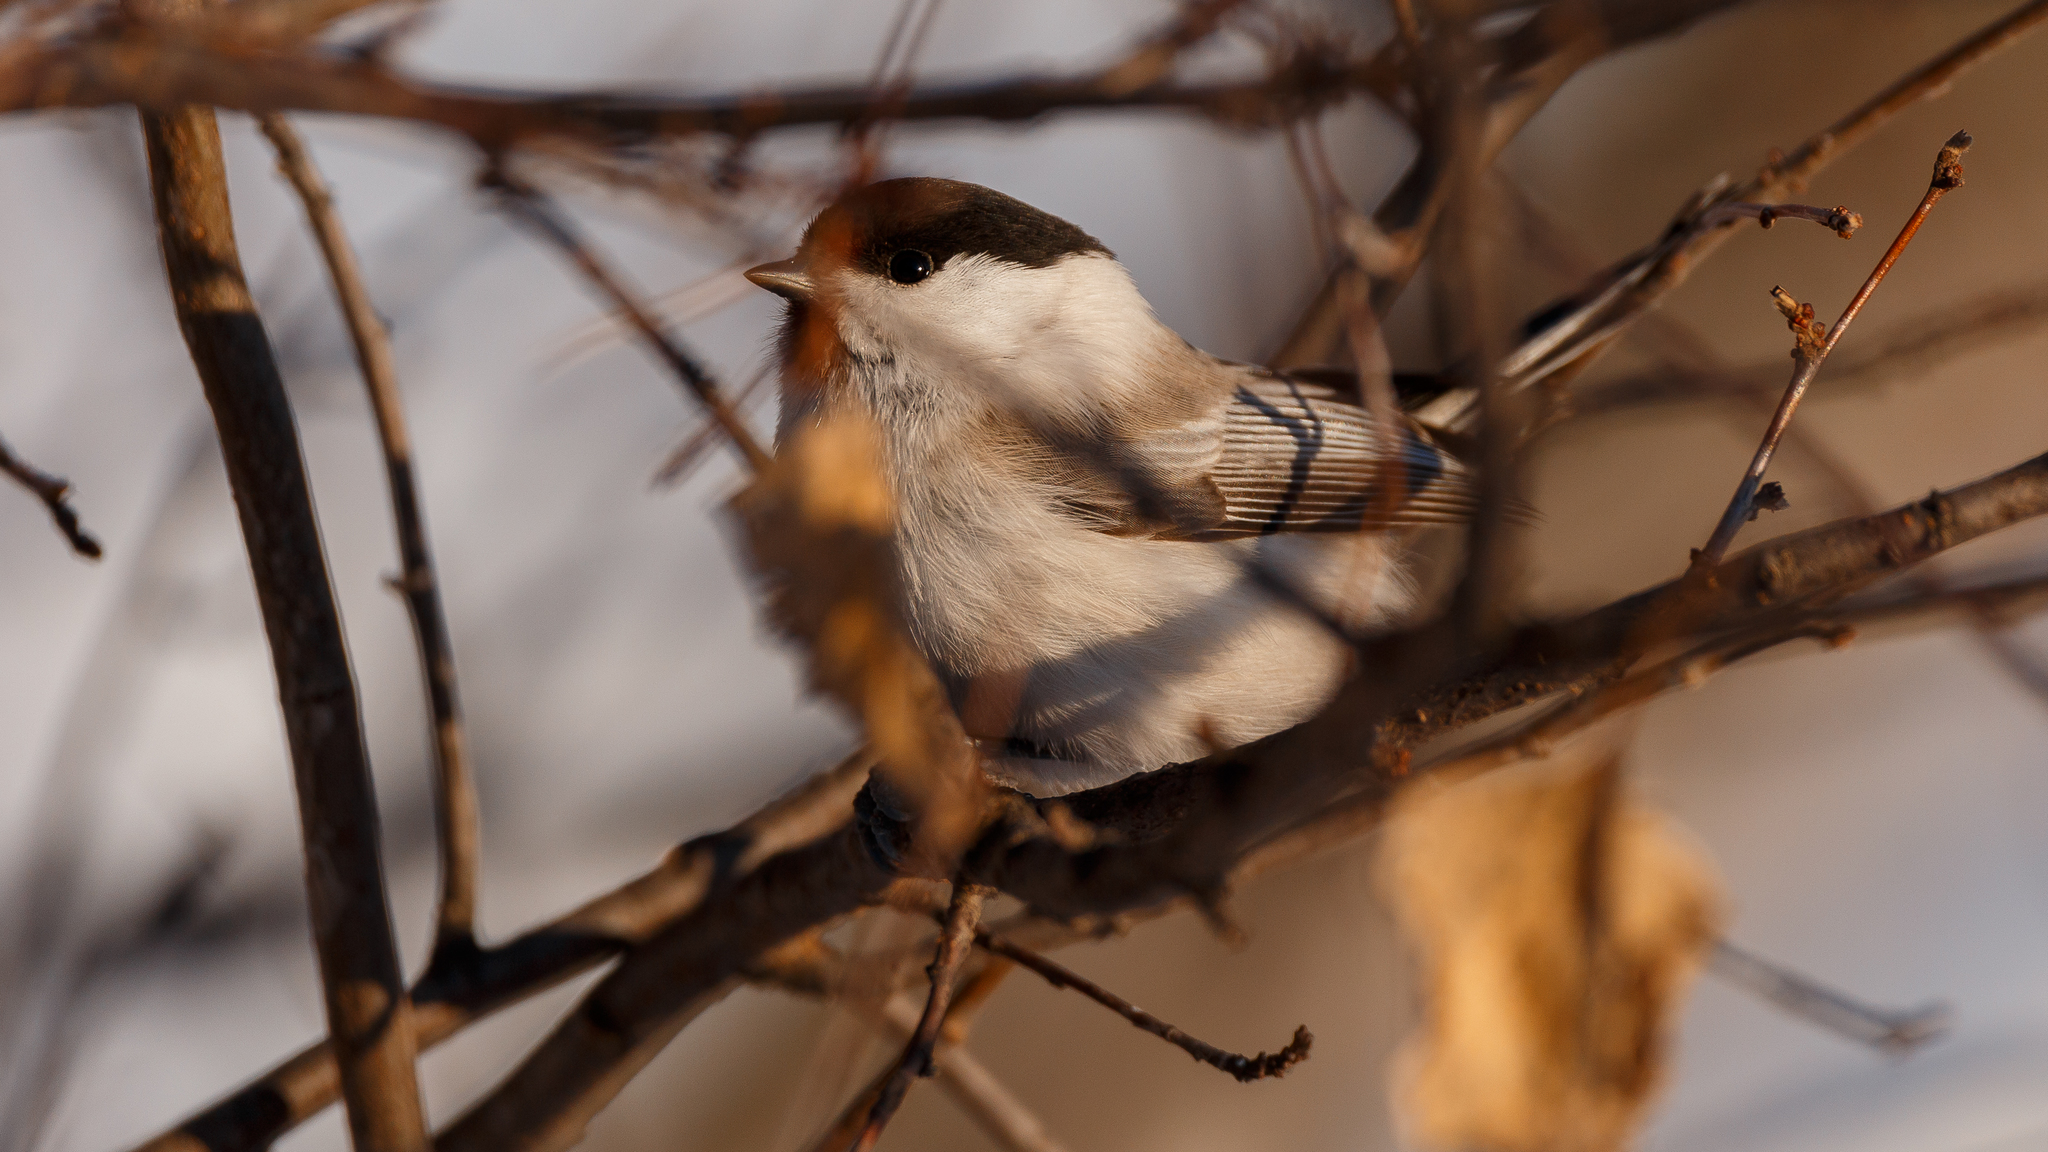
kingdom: Animalia
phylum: Chordata
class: Aves
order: Passeriformes
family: Paridae
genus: Poecile
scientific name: Poecile montanus
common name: Willow tit
